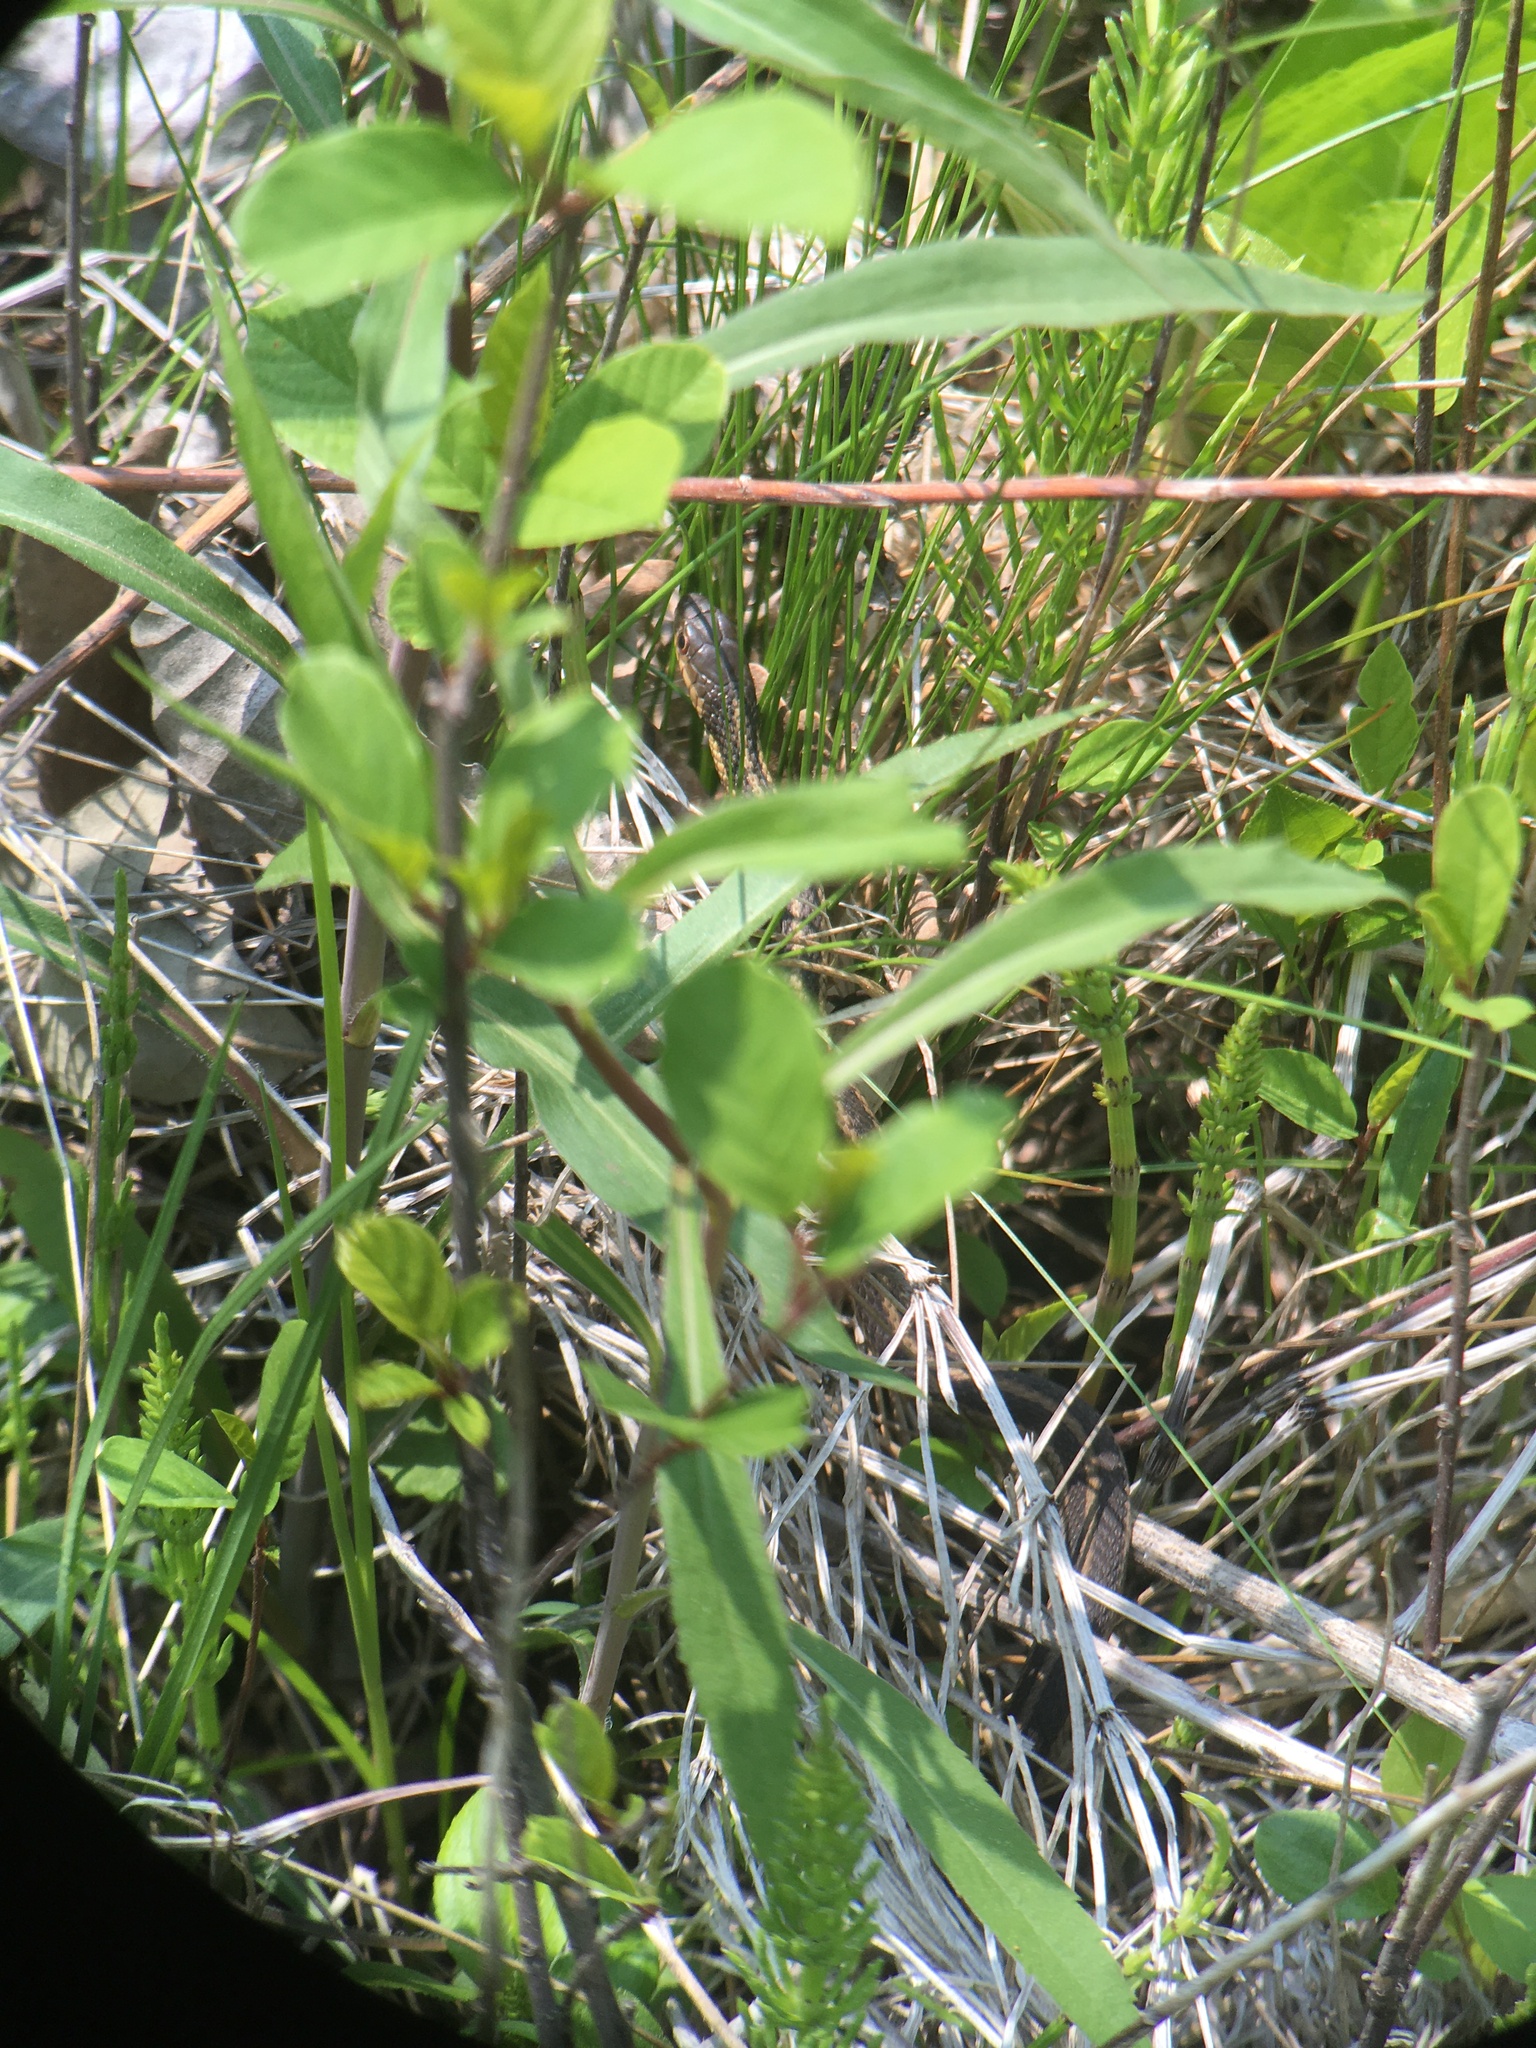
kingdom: Animalia
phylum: Chordata
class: Squamata
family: Colubridae
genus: Thamnophis
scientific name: Thamnophis sirtalis
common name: Common garter snake
